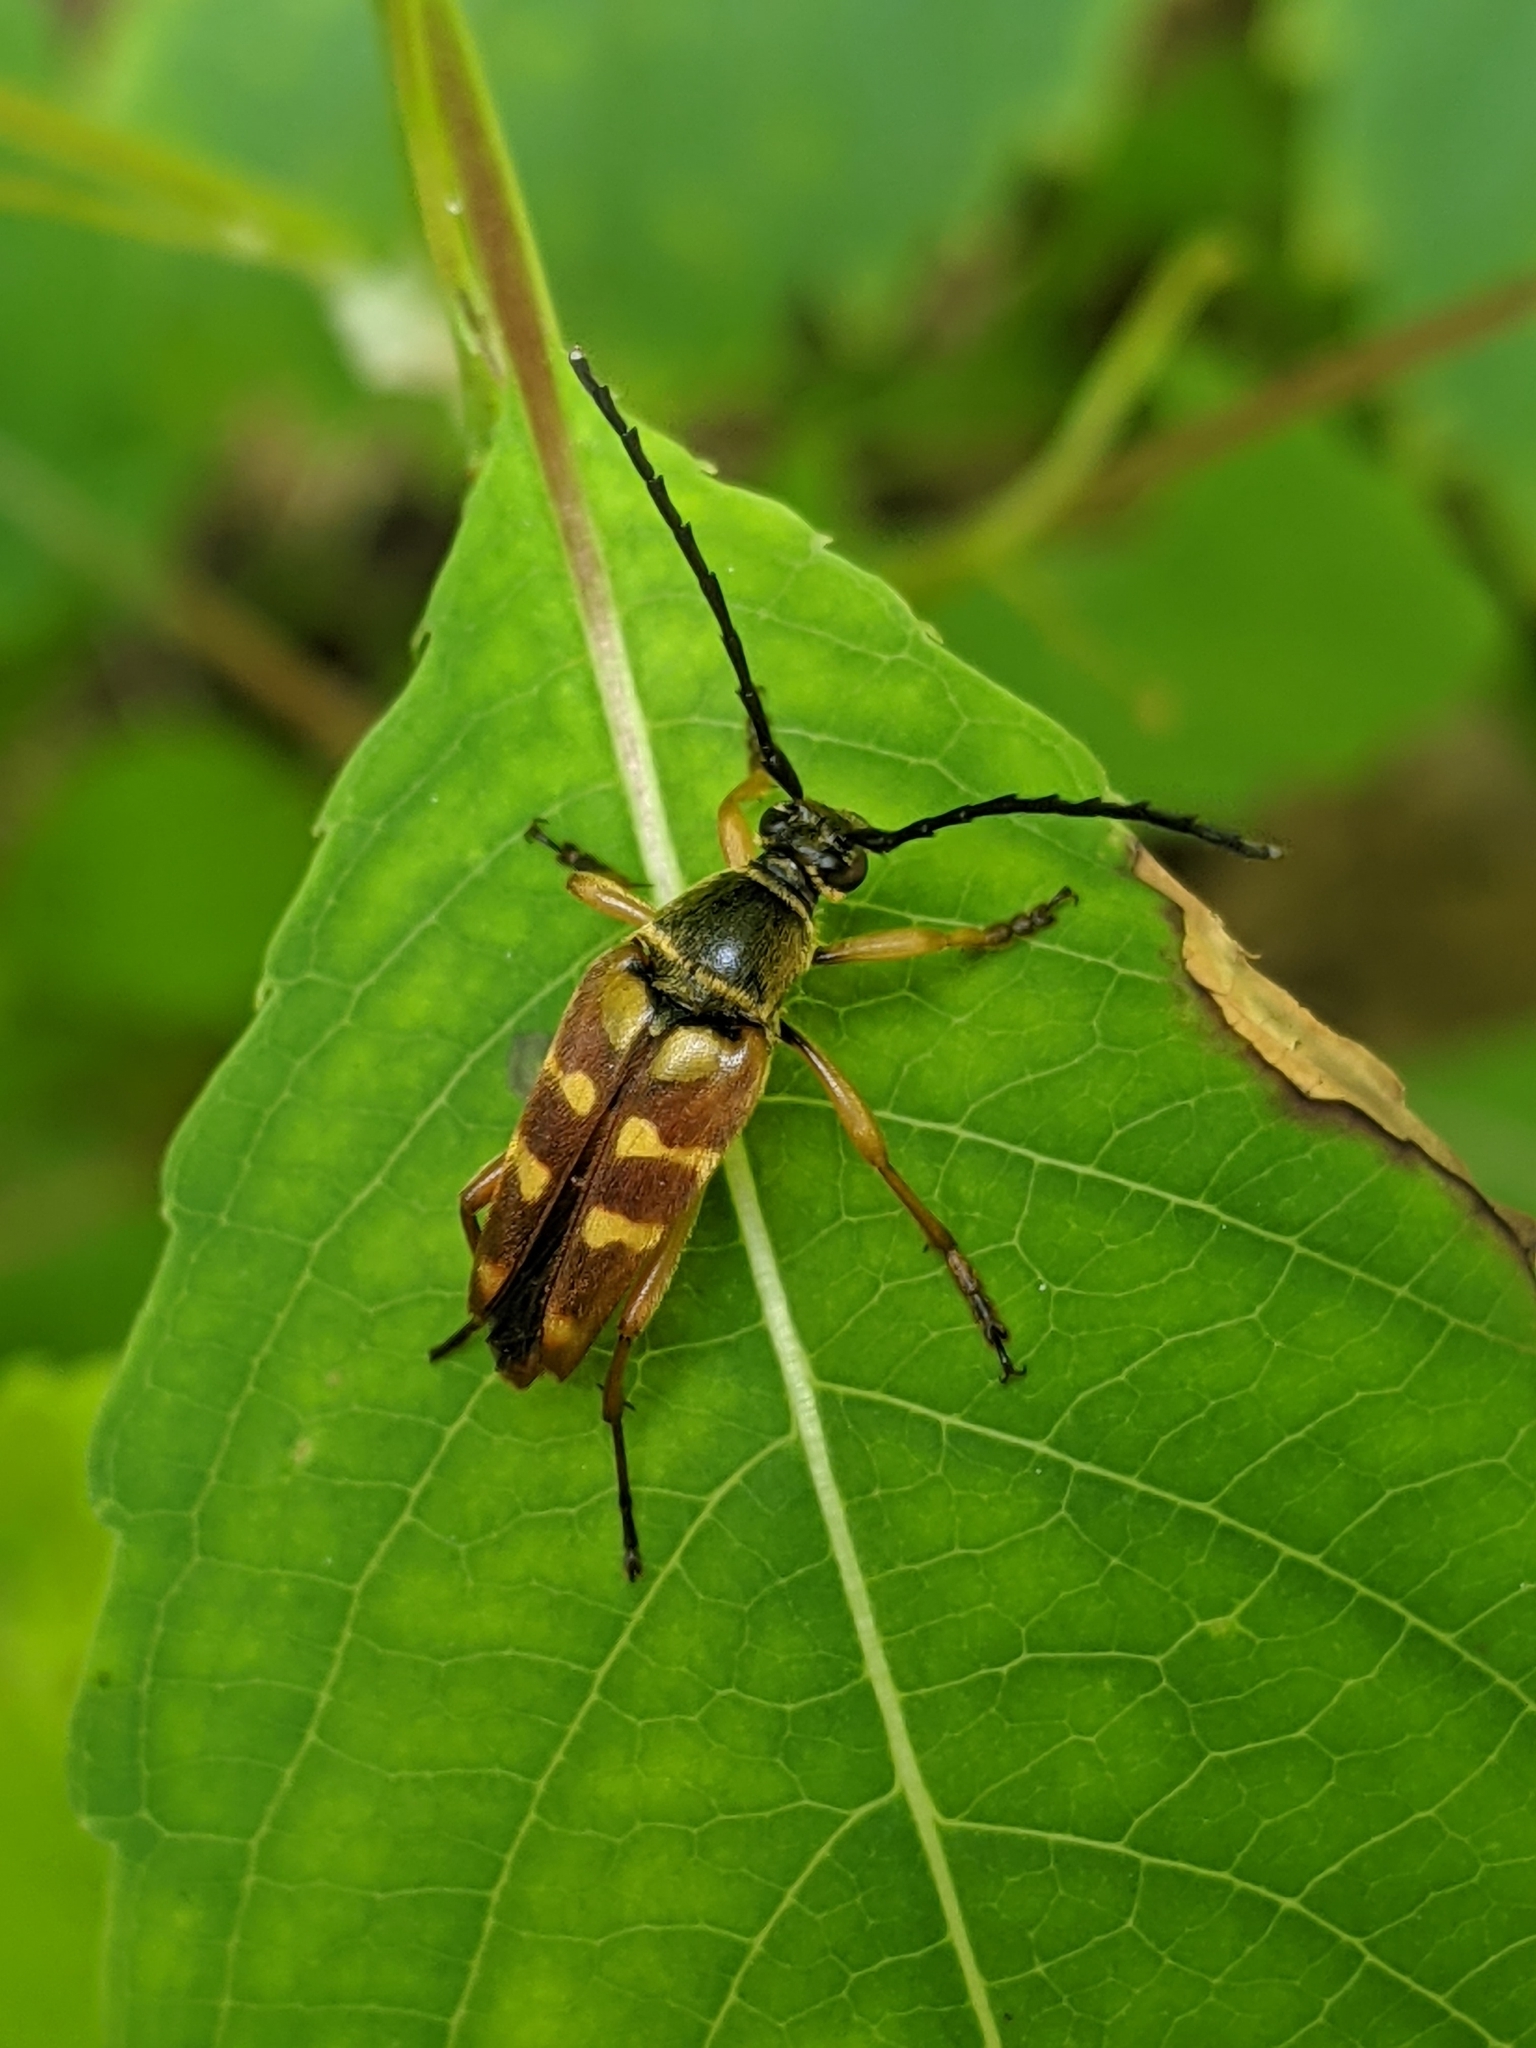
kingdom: Animalia
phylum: Arthropoda
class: Insecta
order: Coleoptera
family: Cerambycidae
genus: Typocerus
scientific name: Typocerus velutinus
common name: Banded longhorn beetle
